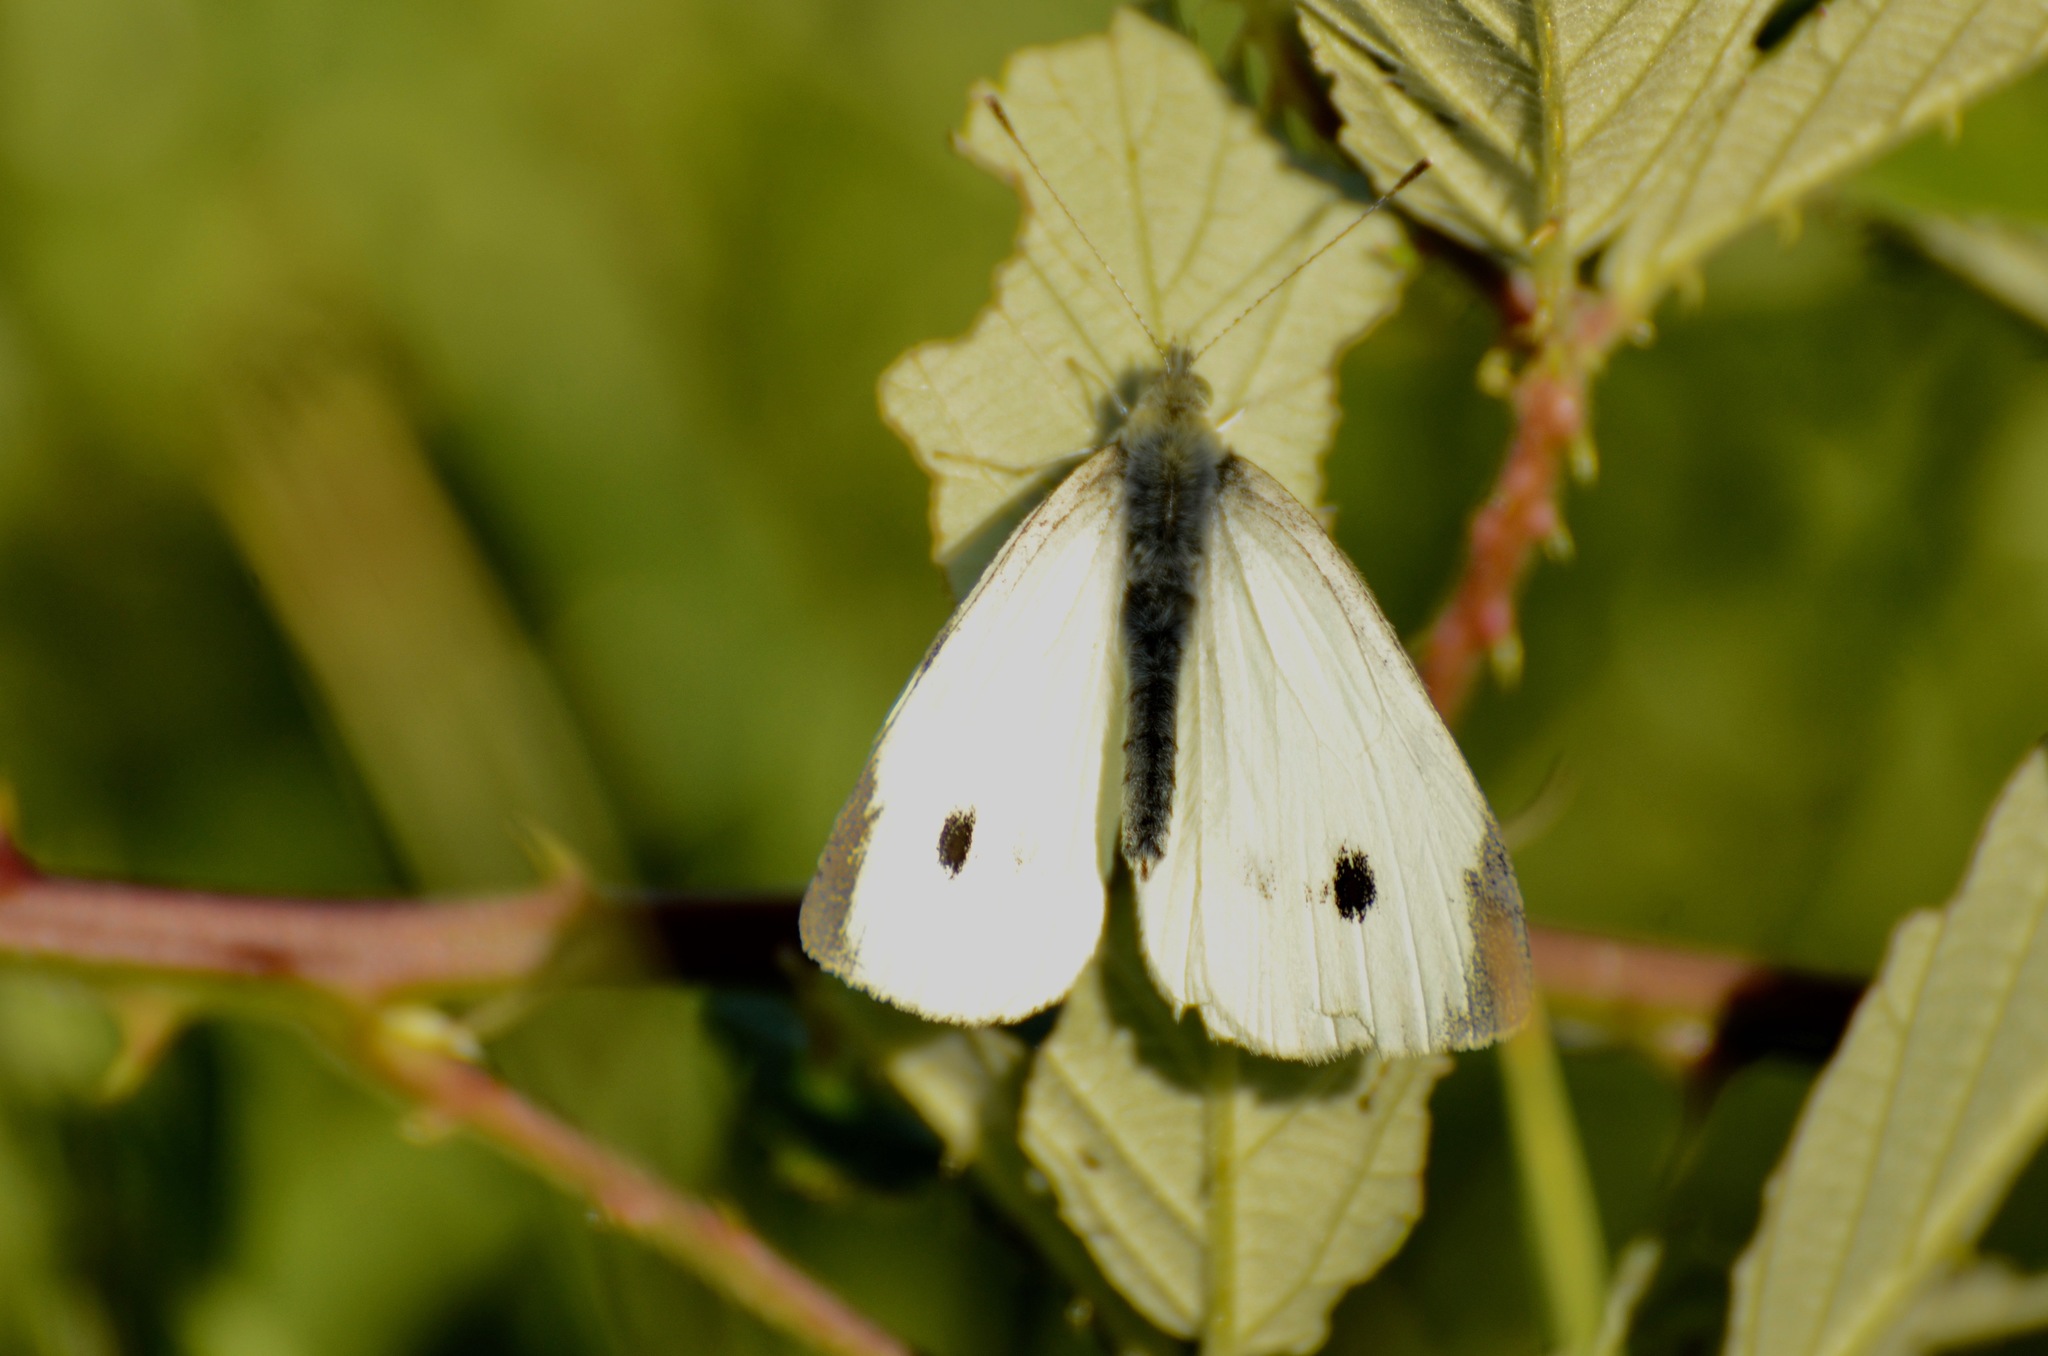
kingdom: Animalia
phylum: Arthropoda
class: Insecta
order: Lepidoptera
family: Pieridae
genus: Pieris
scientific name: Pieris rapae
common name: Small white
